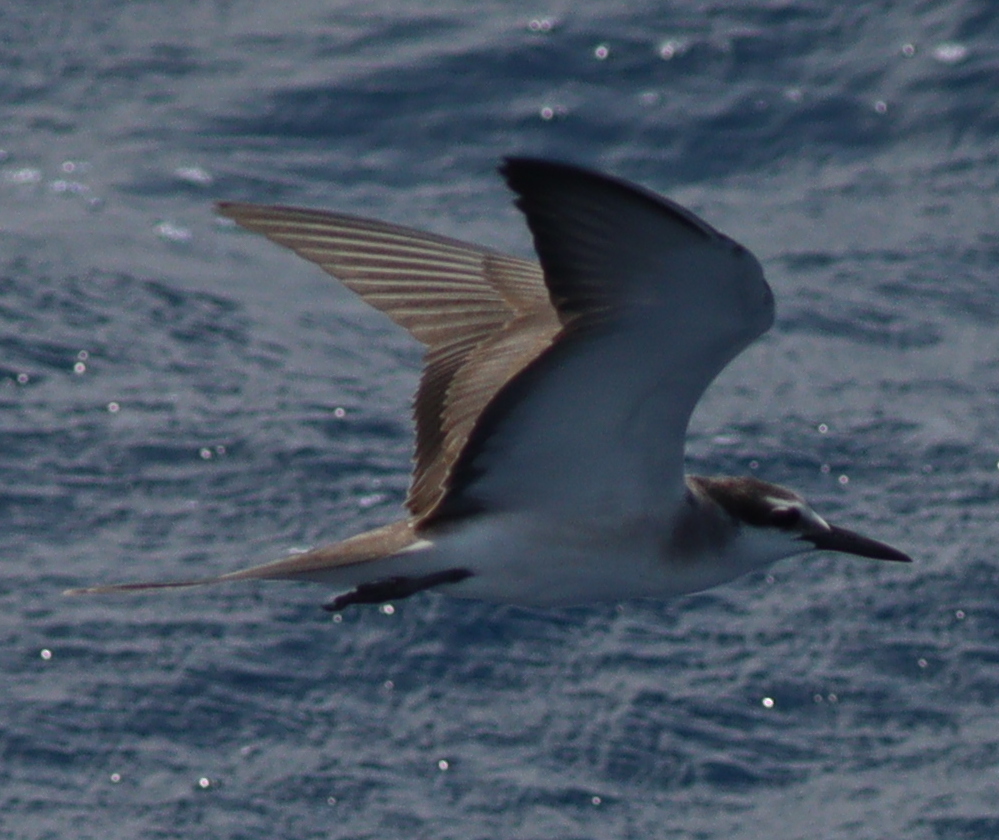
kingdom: Animalia
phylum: Chordata
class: Aves
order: Charadriiformes
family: Laridae
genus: Onychoprion
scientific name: Onychoprion anaethetus
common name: Bridled tern
